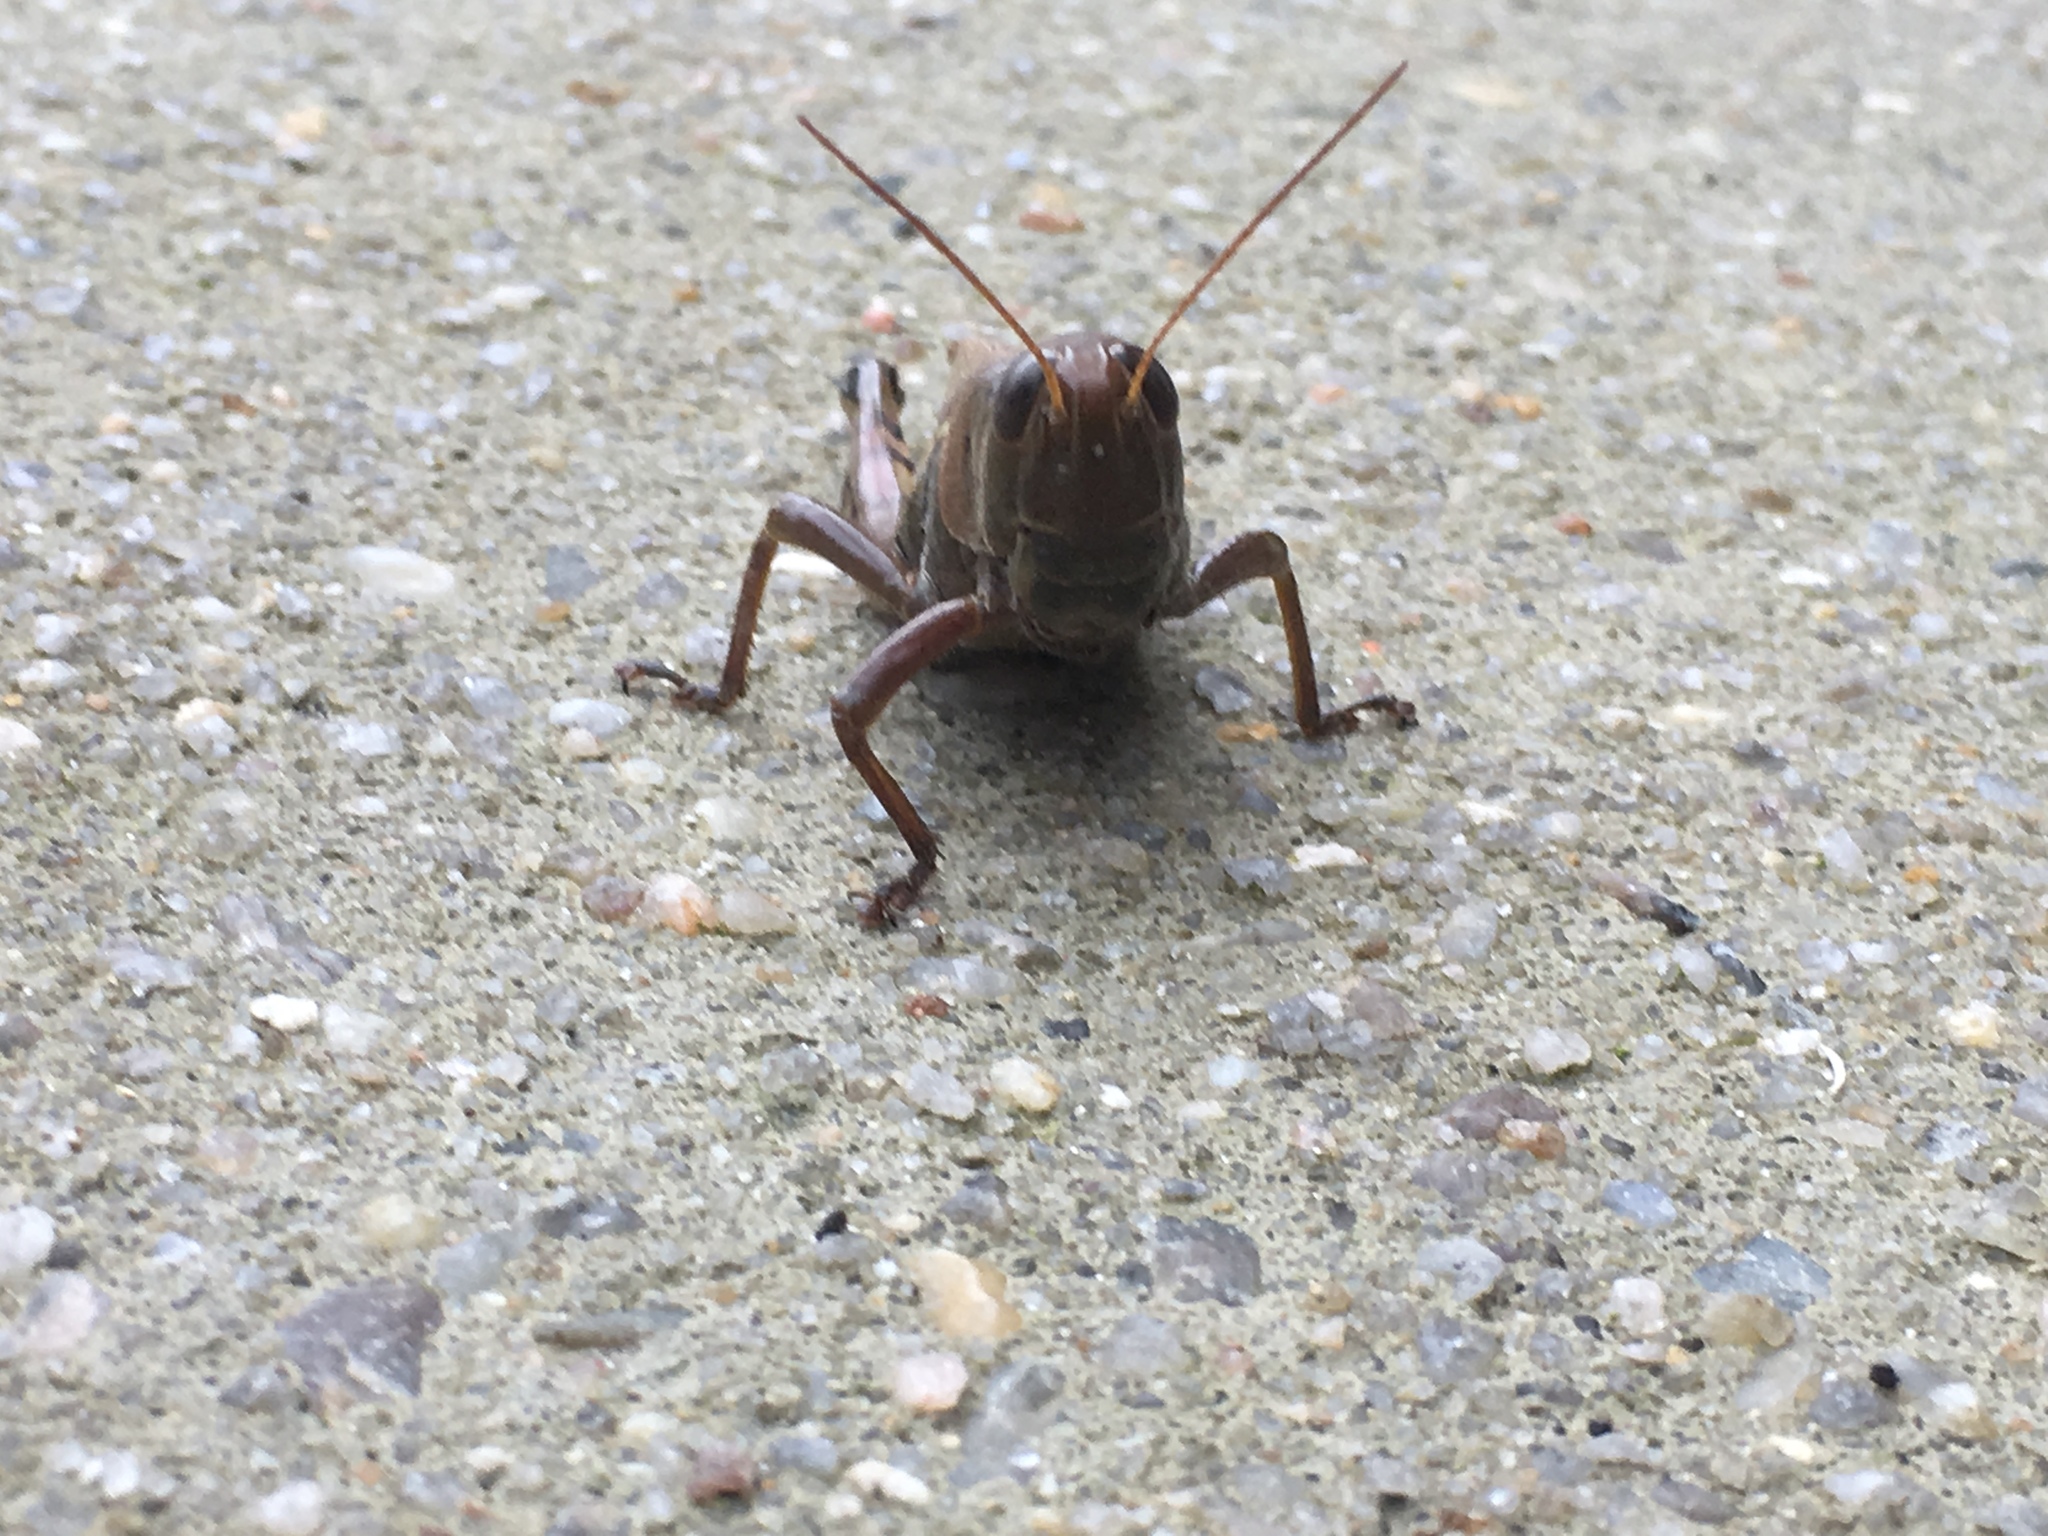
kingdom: Animalia
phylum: Arthropoda
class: Insecta
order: Orthoptera
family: Acrididae
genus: Melanoplus
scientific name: Melanoplus differentialis
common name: Differential grasshopper
